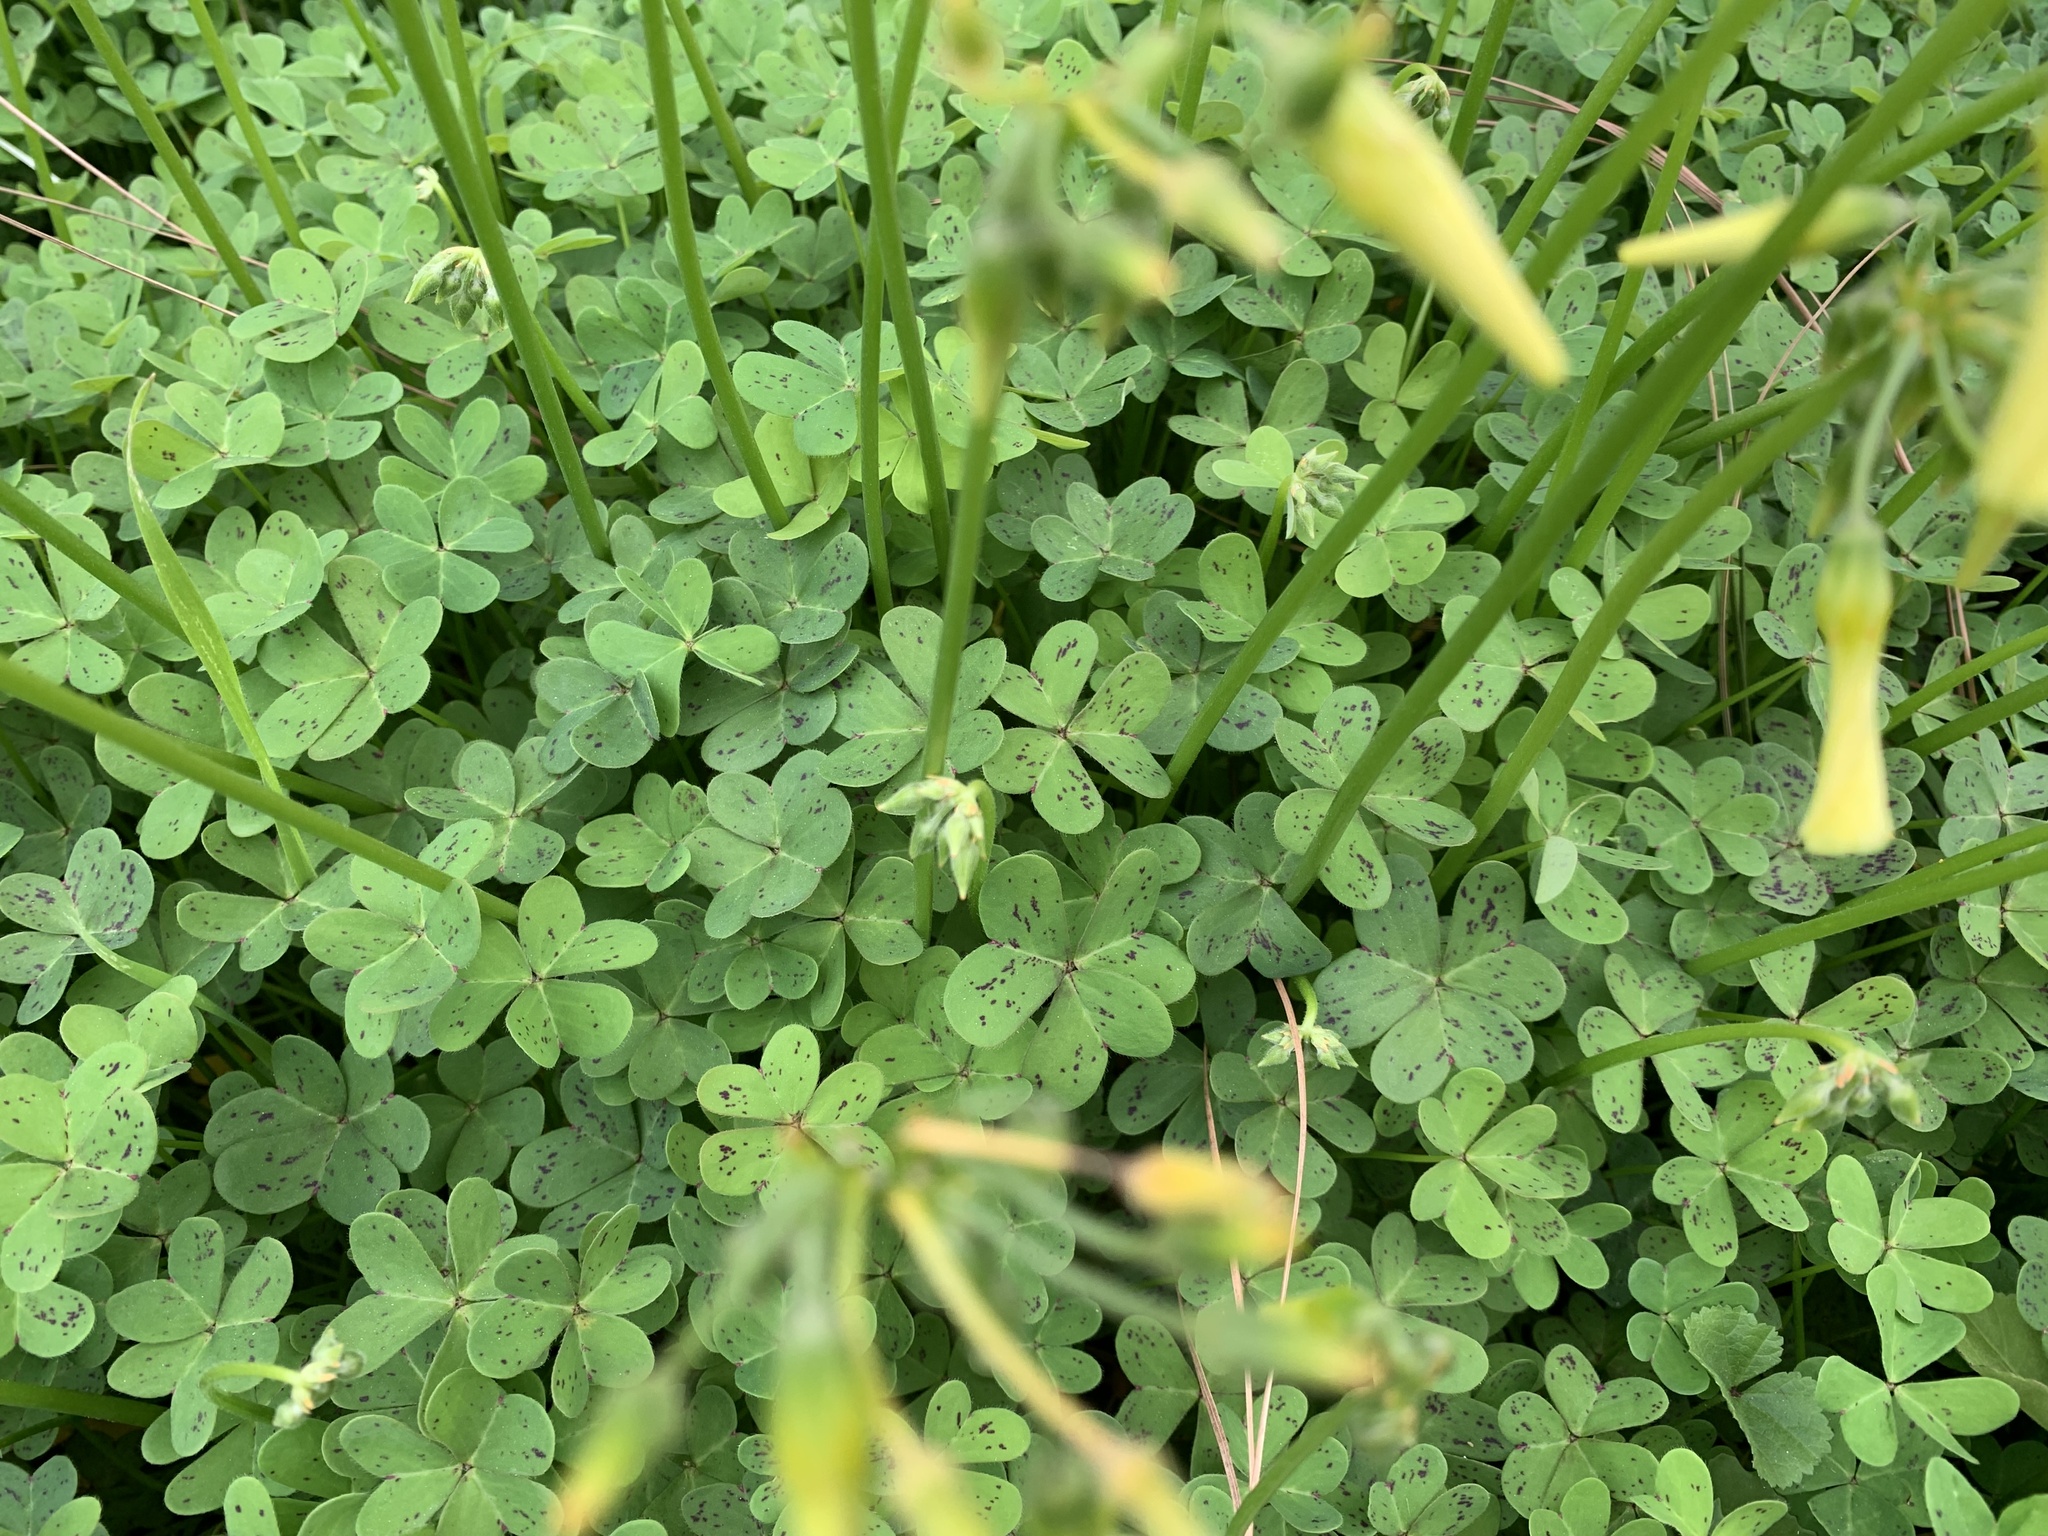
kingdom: Plantae
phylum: Tracheophyta
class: Magnoliopsida
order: Oxalidales
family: Oxalidaceae
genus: Oxalis
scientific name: Oxalis pes-caprae
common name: Bermuda-buttercup
